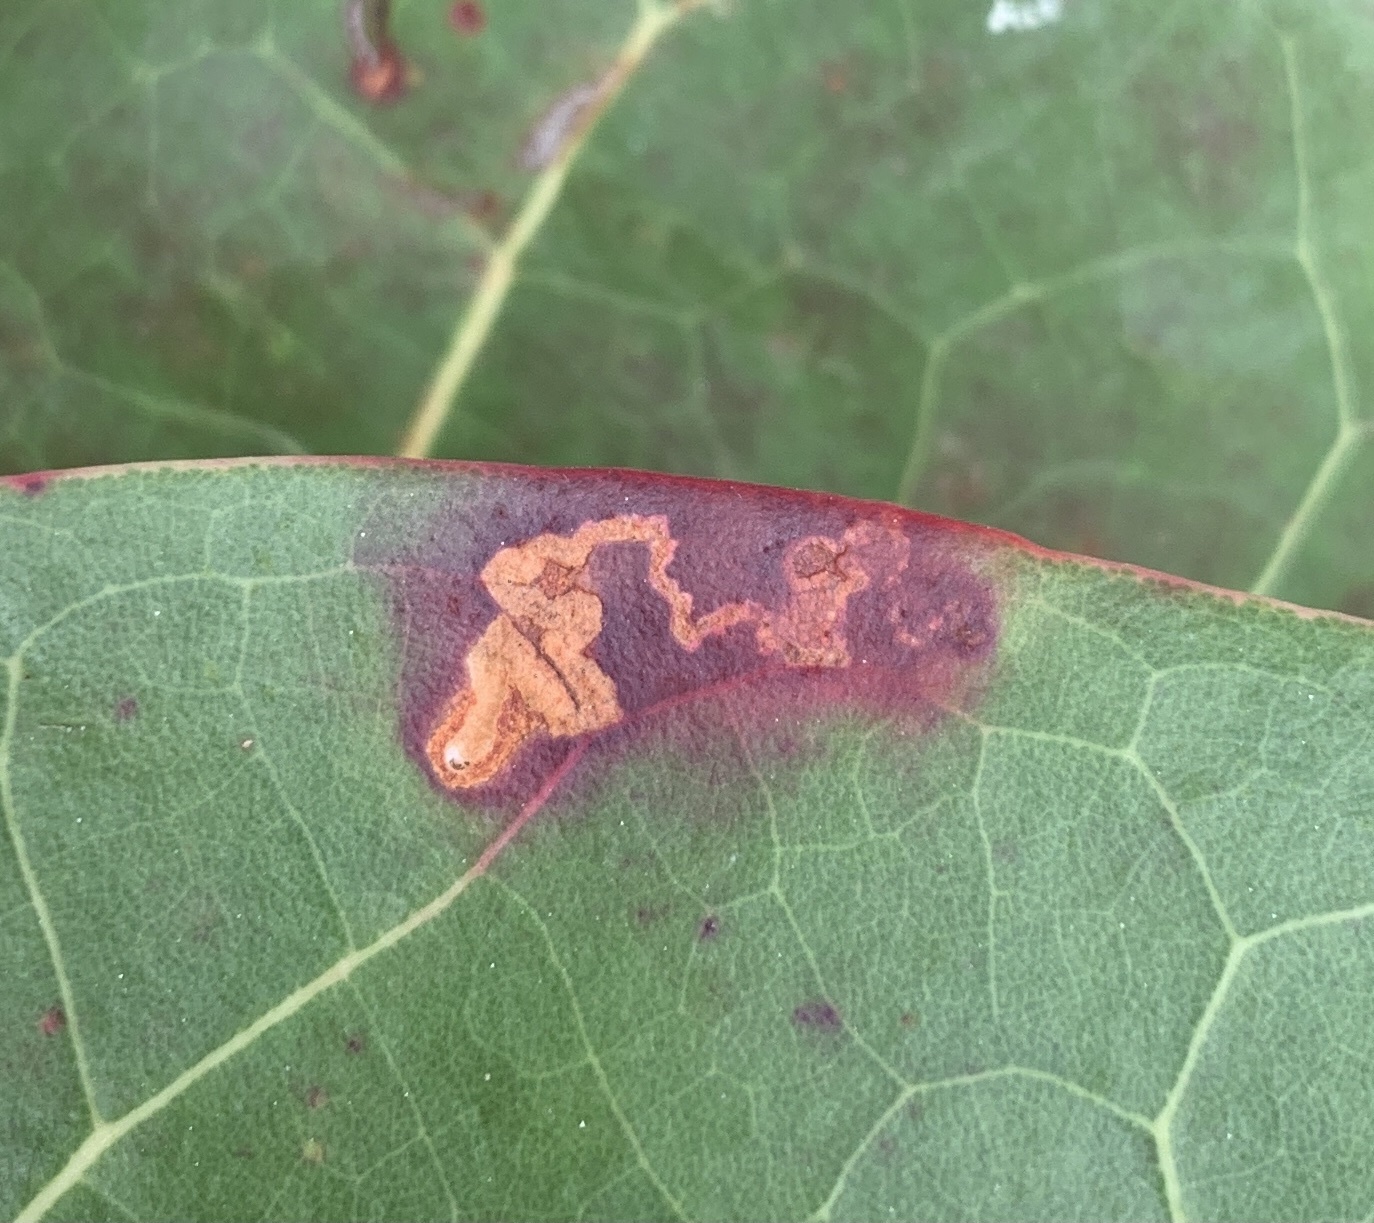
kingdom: Animalia
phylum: Arthropoda
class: Insecta
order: Lepidoptera
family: Nepticulidae
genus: Enteucha
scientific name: Enteucha gilvafascia
